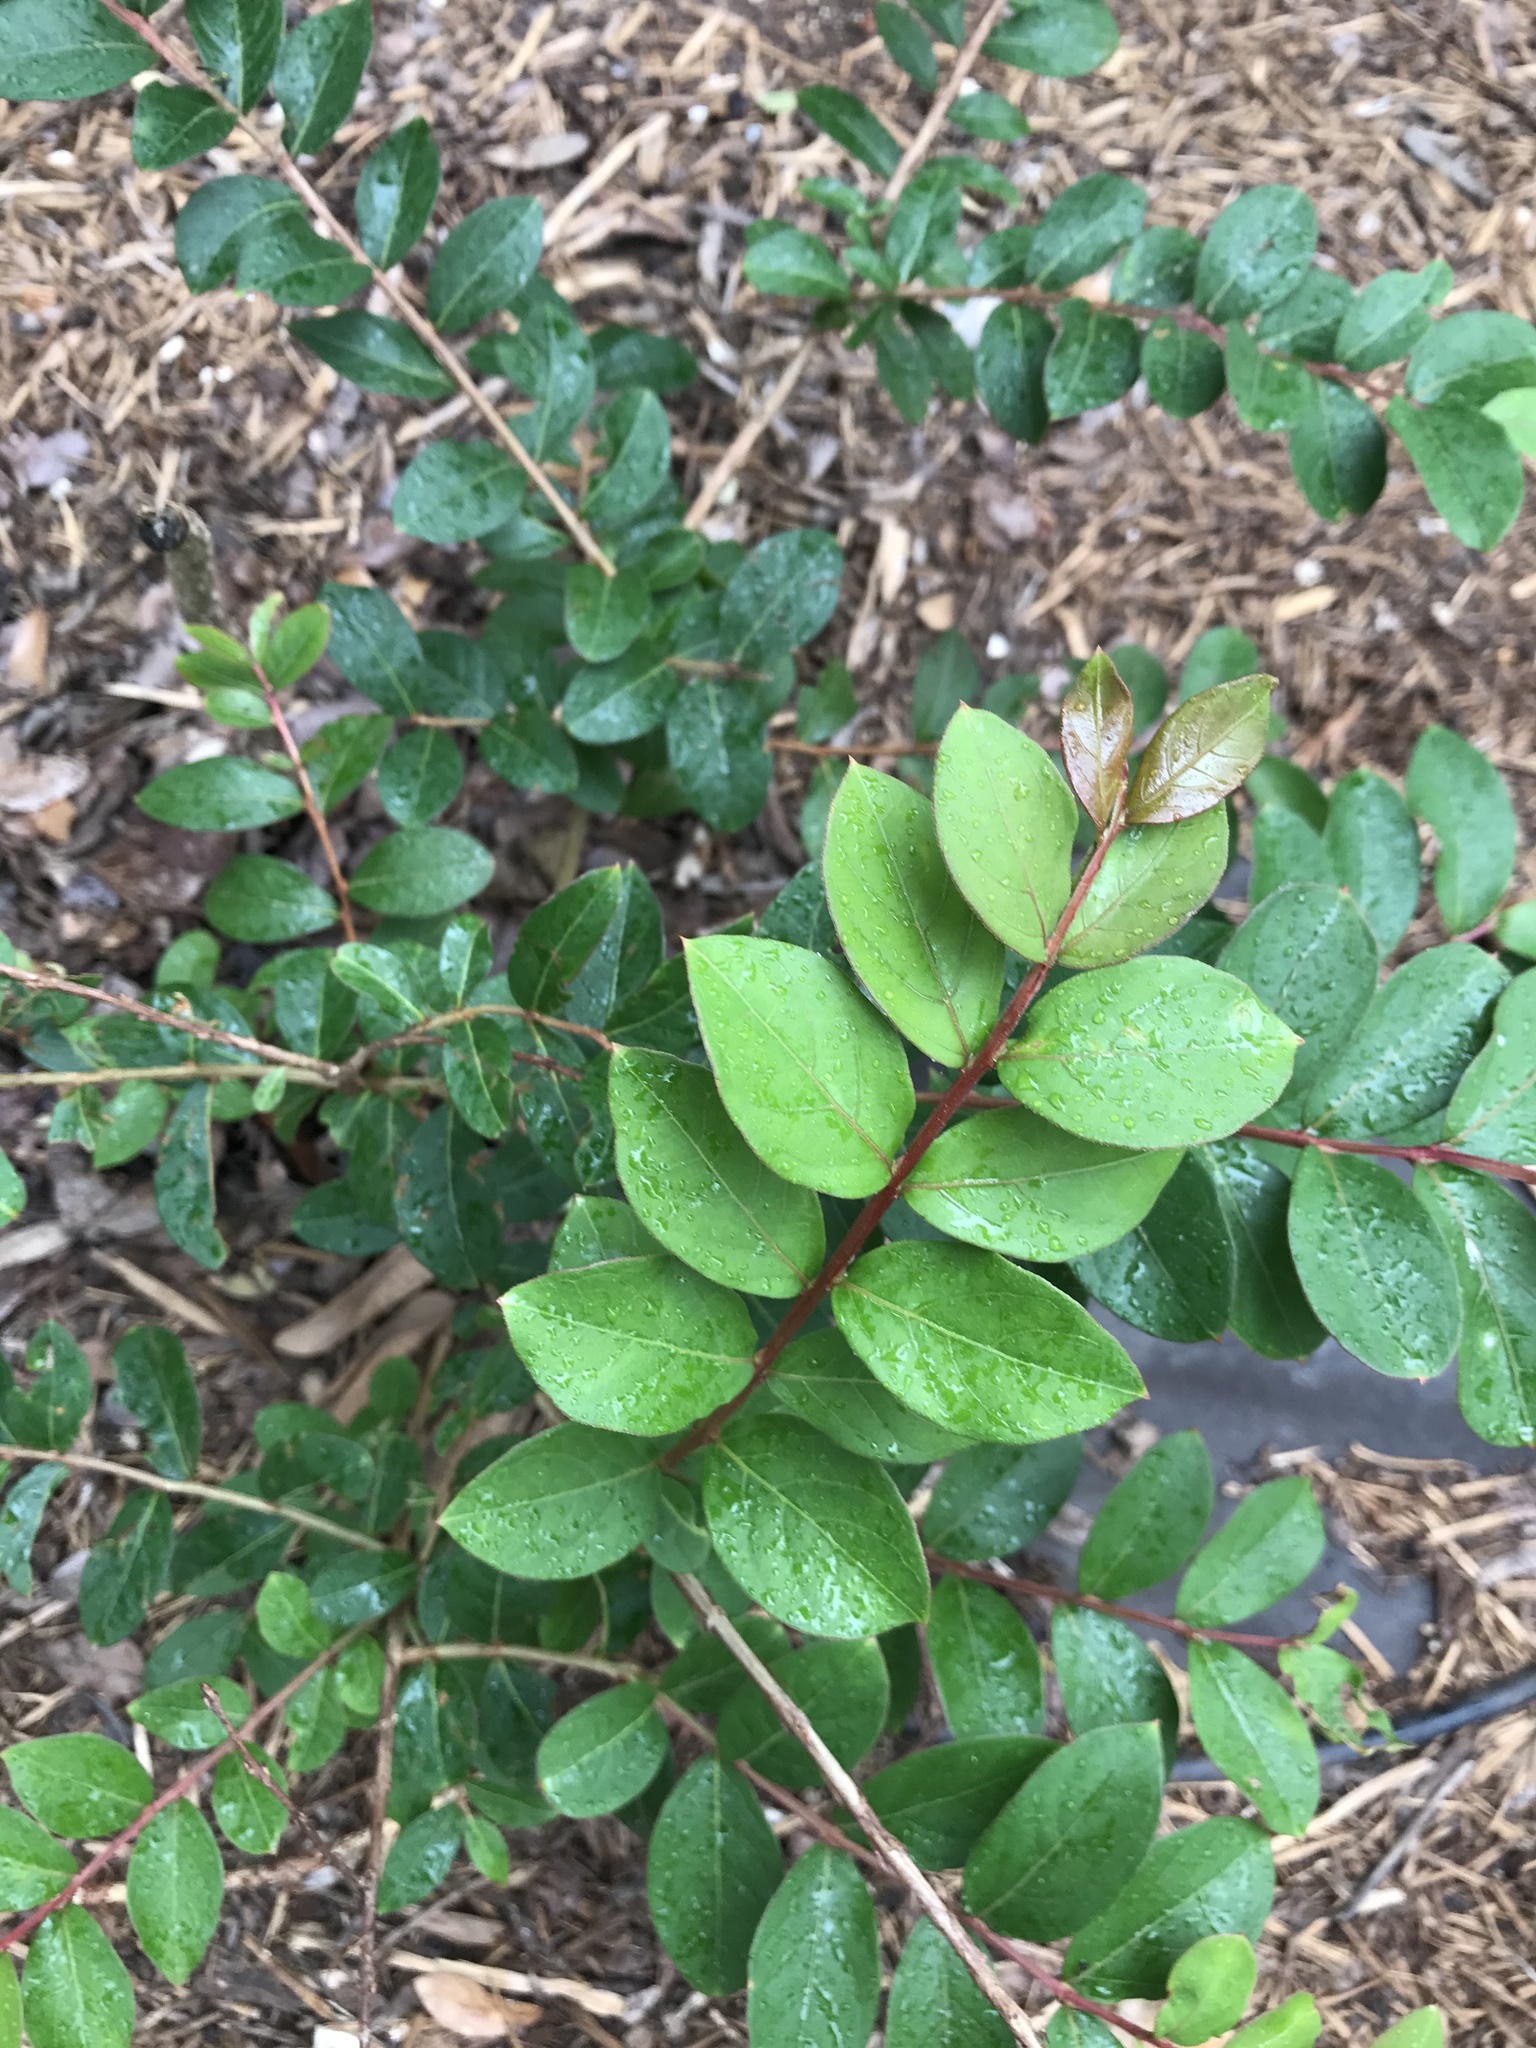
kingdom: Plantae
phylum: Tracheophyta
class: Magnoliopsida
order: Myrtales
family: Lythraceae
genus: Lagerstroemia
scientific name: Lagerstroemia
